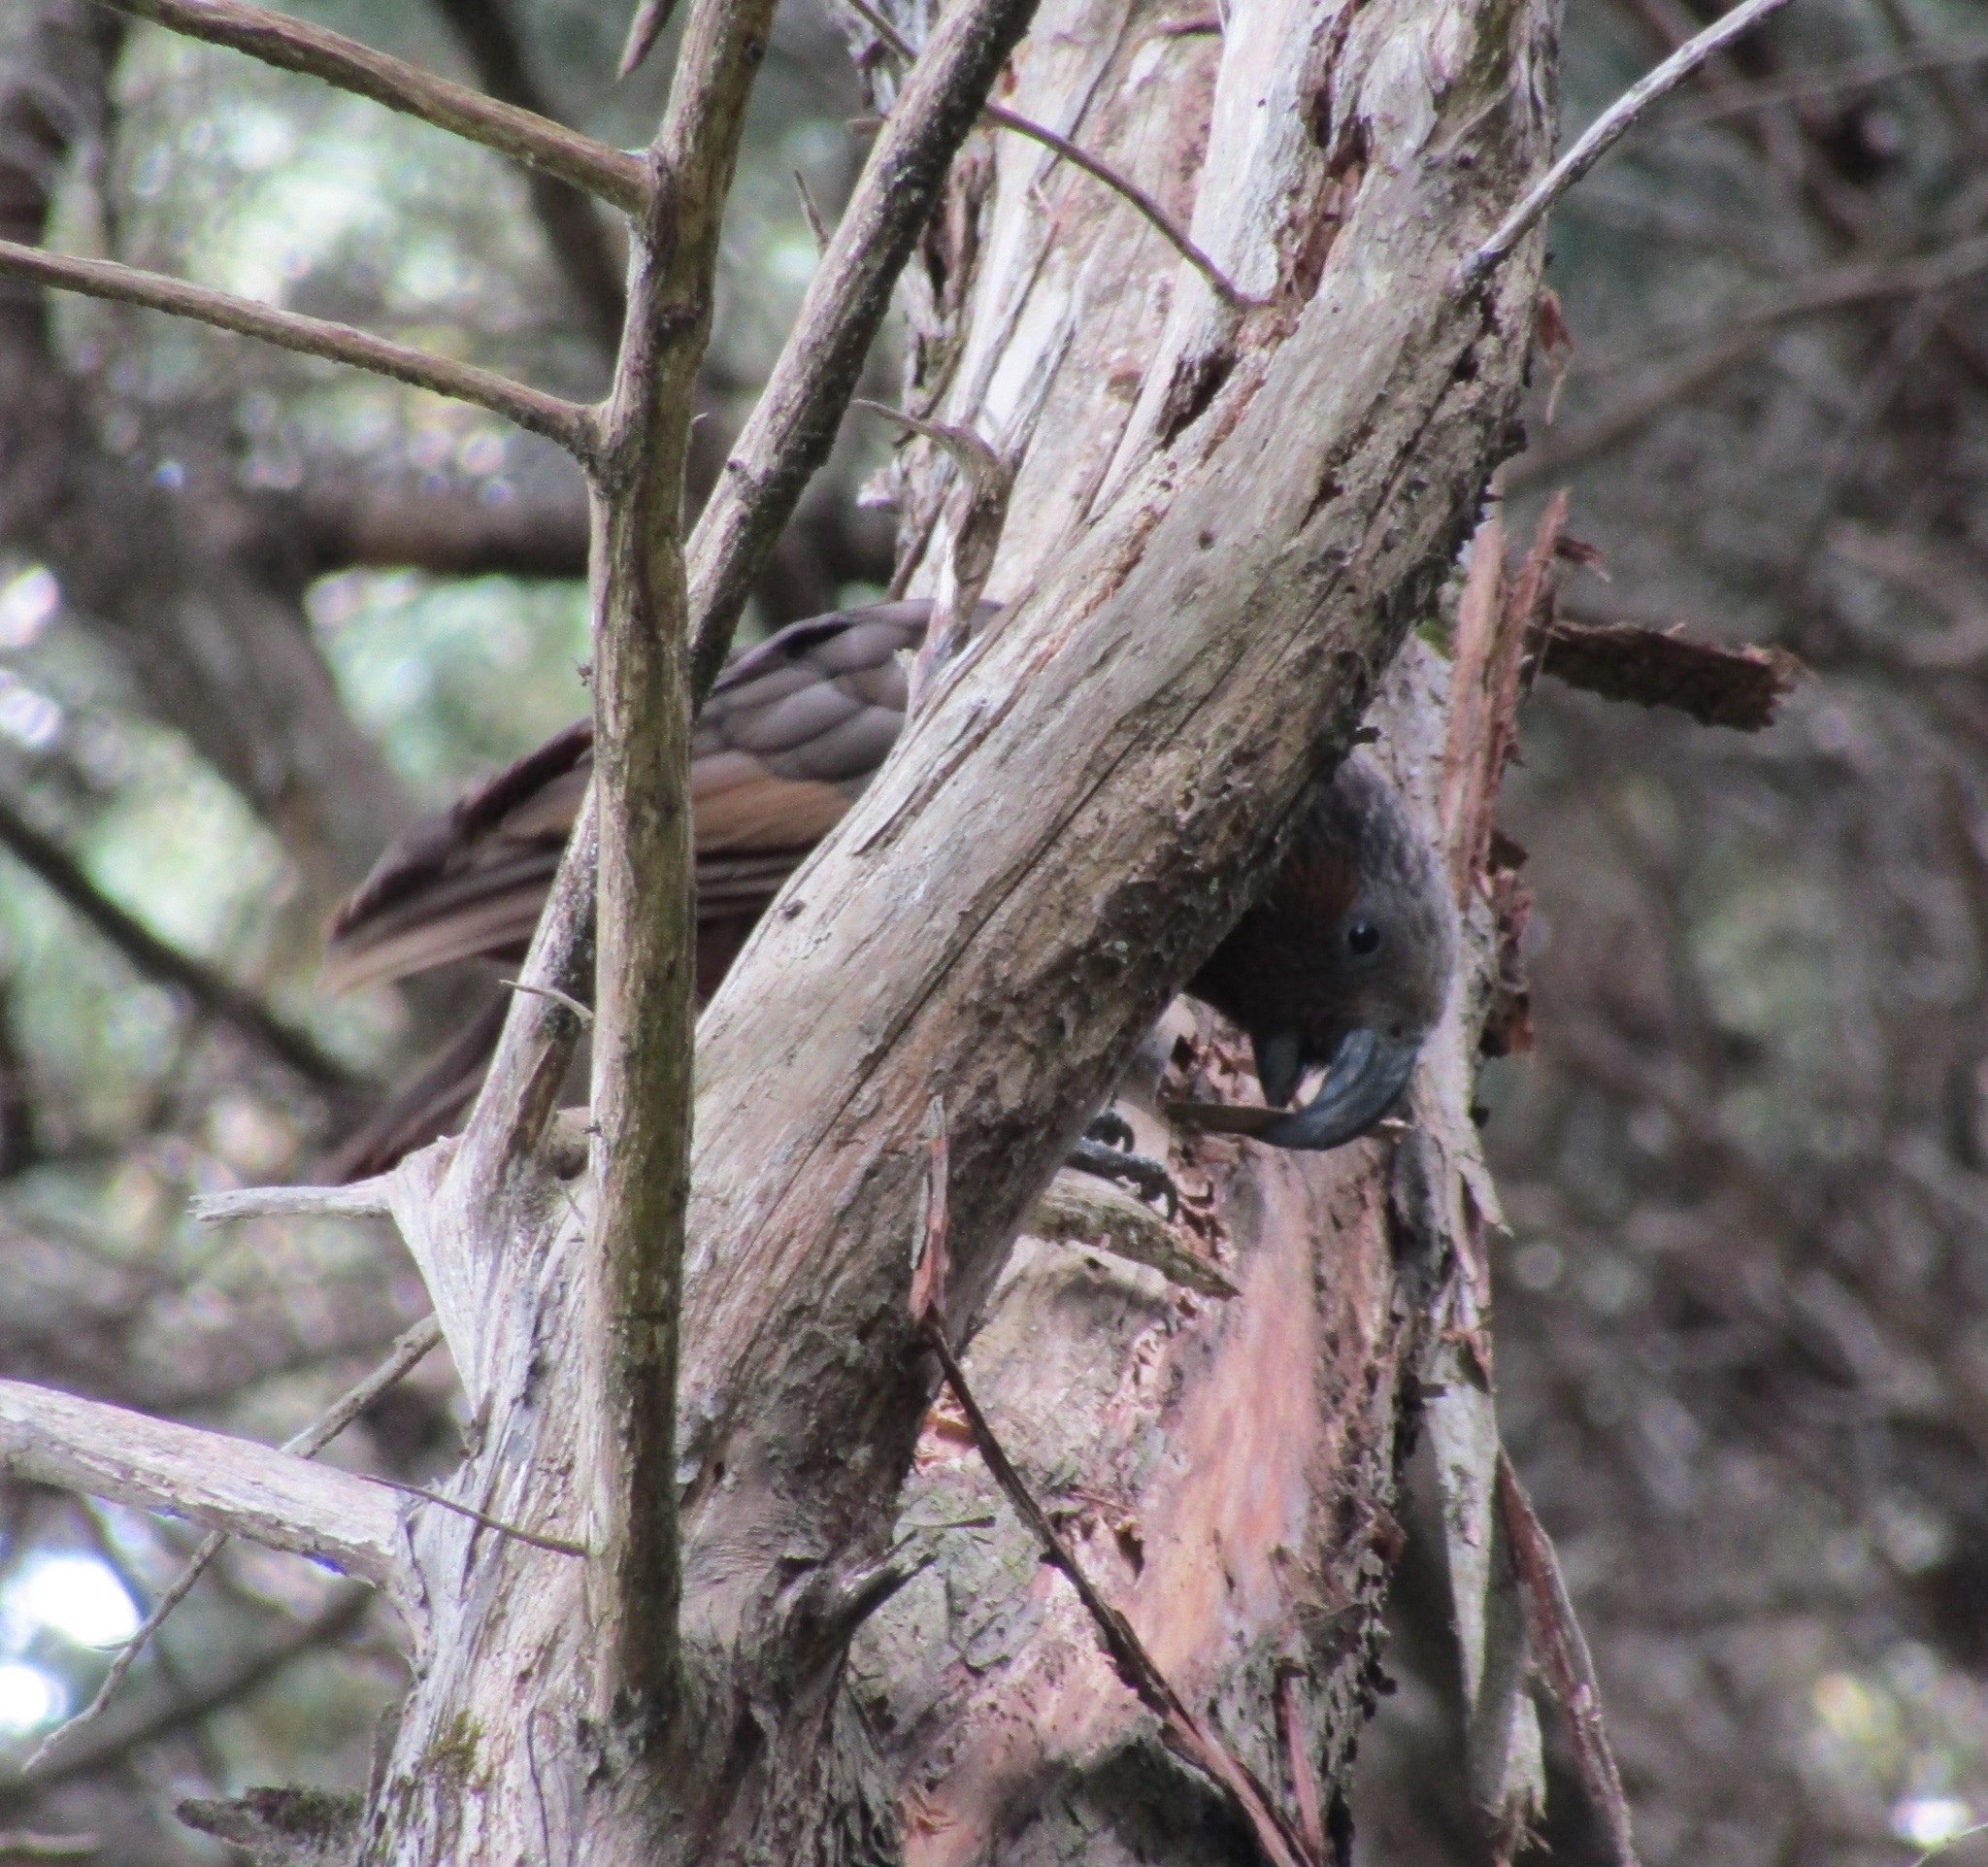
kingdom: Animalia
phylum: Chordata
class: Aves
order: Psittaciformes
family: Psittacidae
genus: Nestor
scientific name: Nestor meridionalis
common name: New zealand kaka
